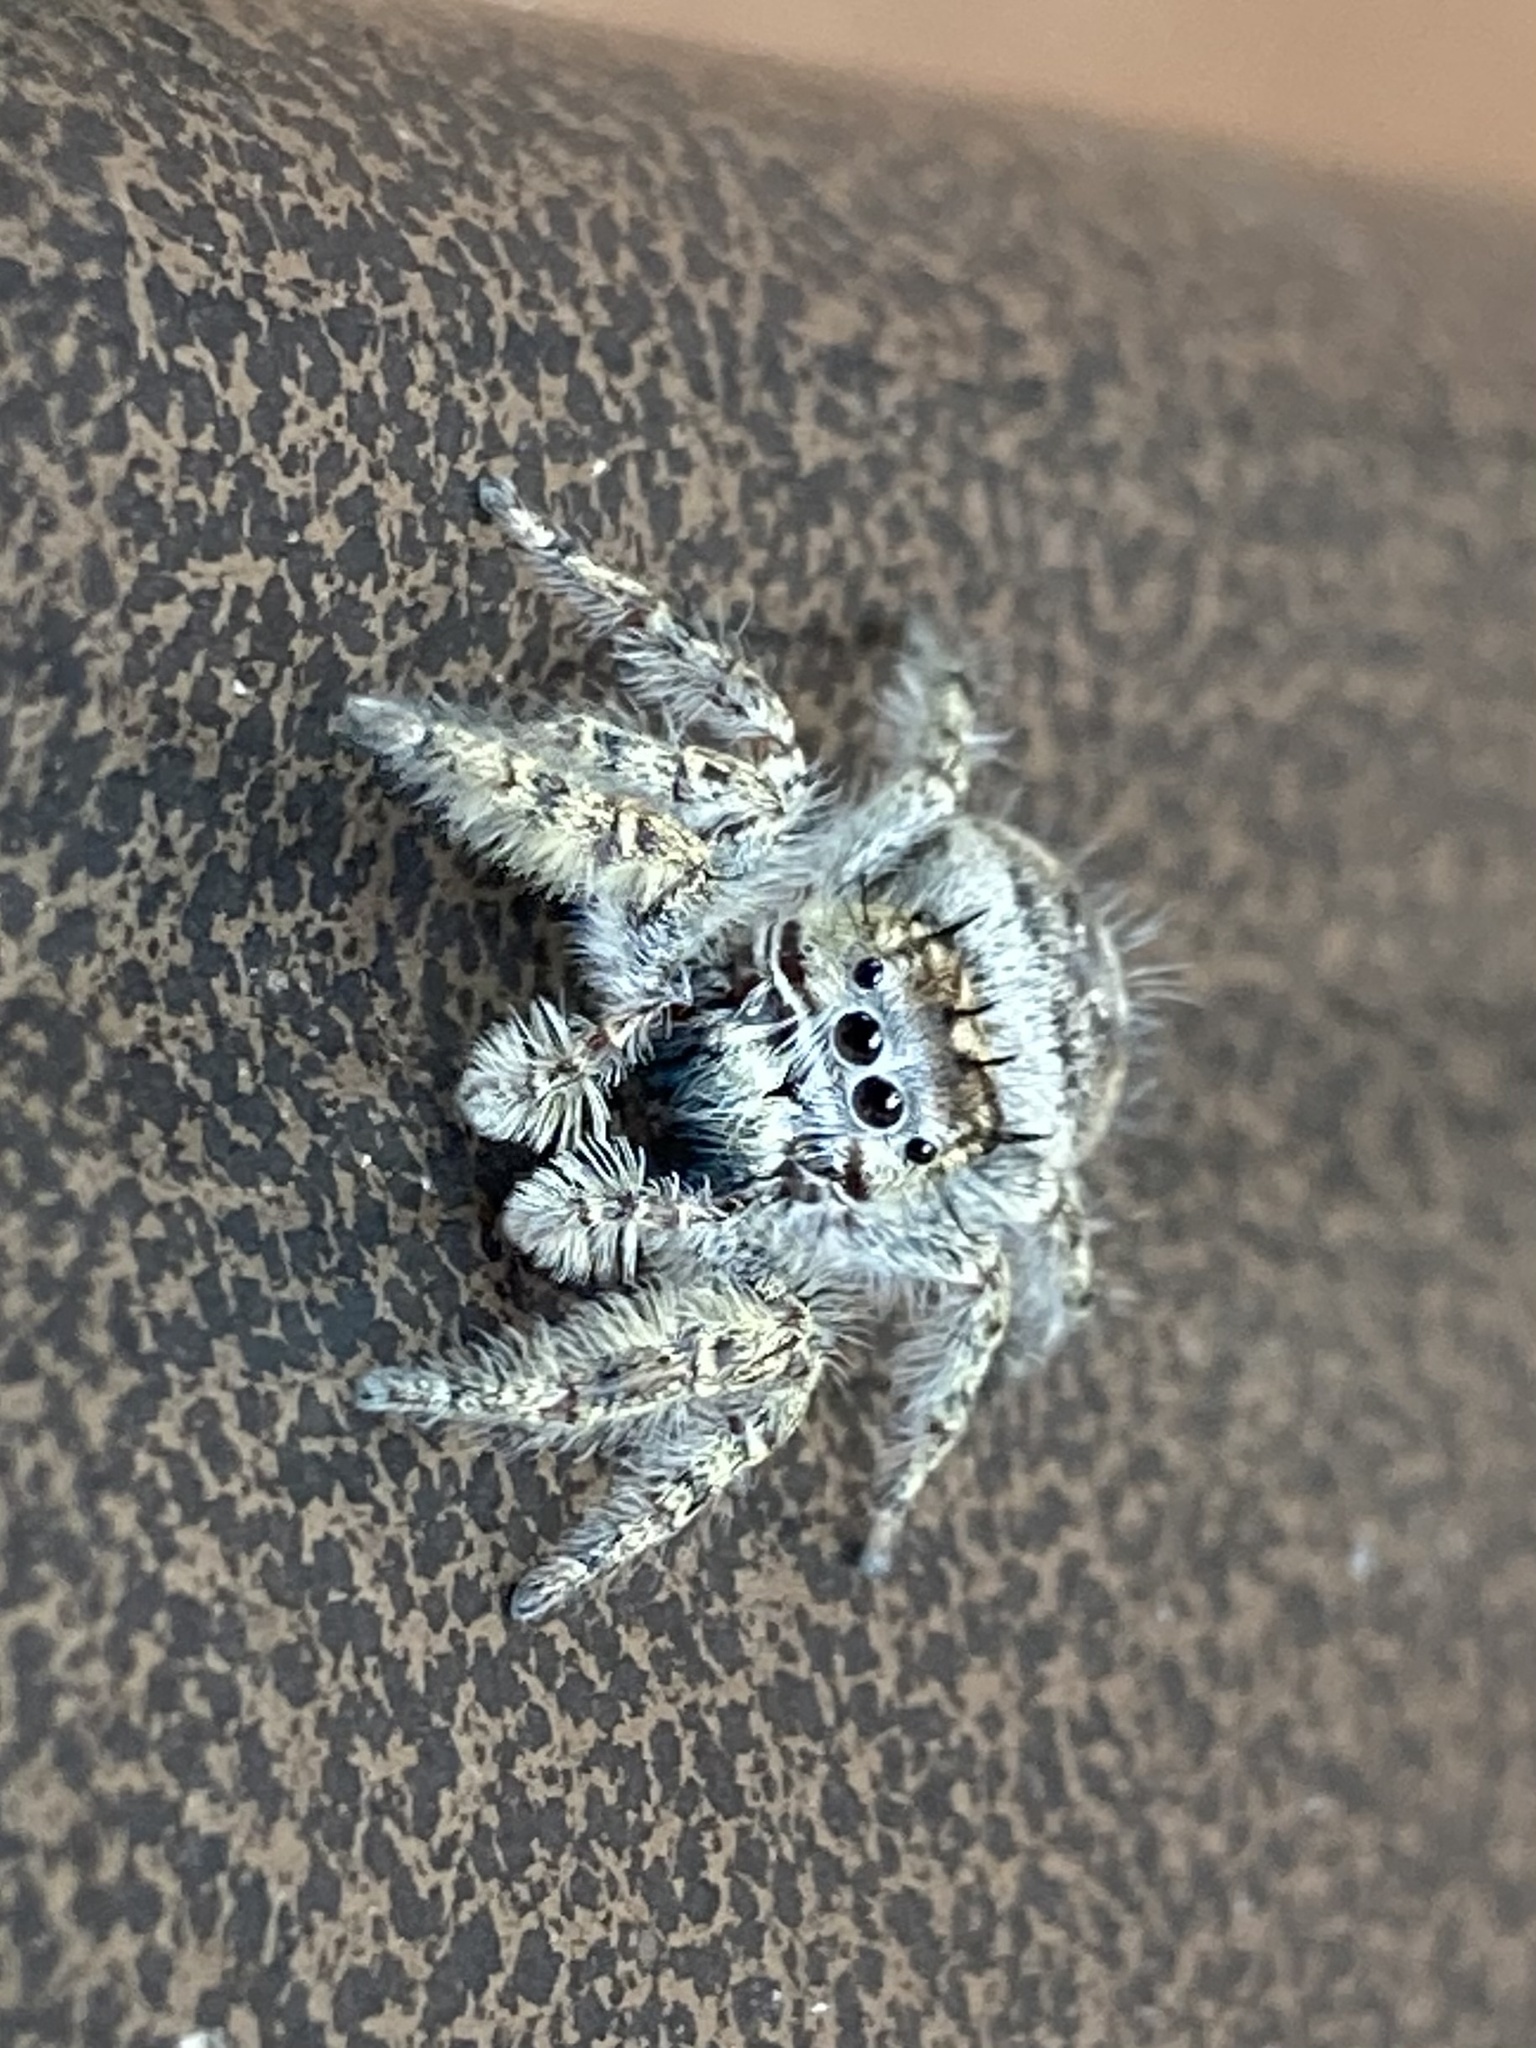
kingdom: Animalia
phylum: Arthropoda
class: Arachnida
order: Araneae
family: Salticidae
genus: Phidippus
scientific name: Phidippus putnami
